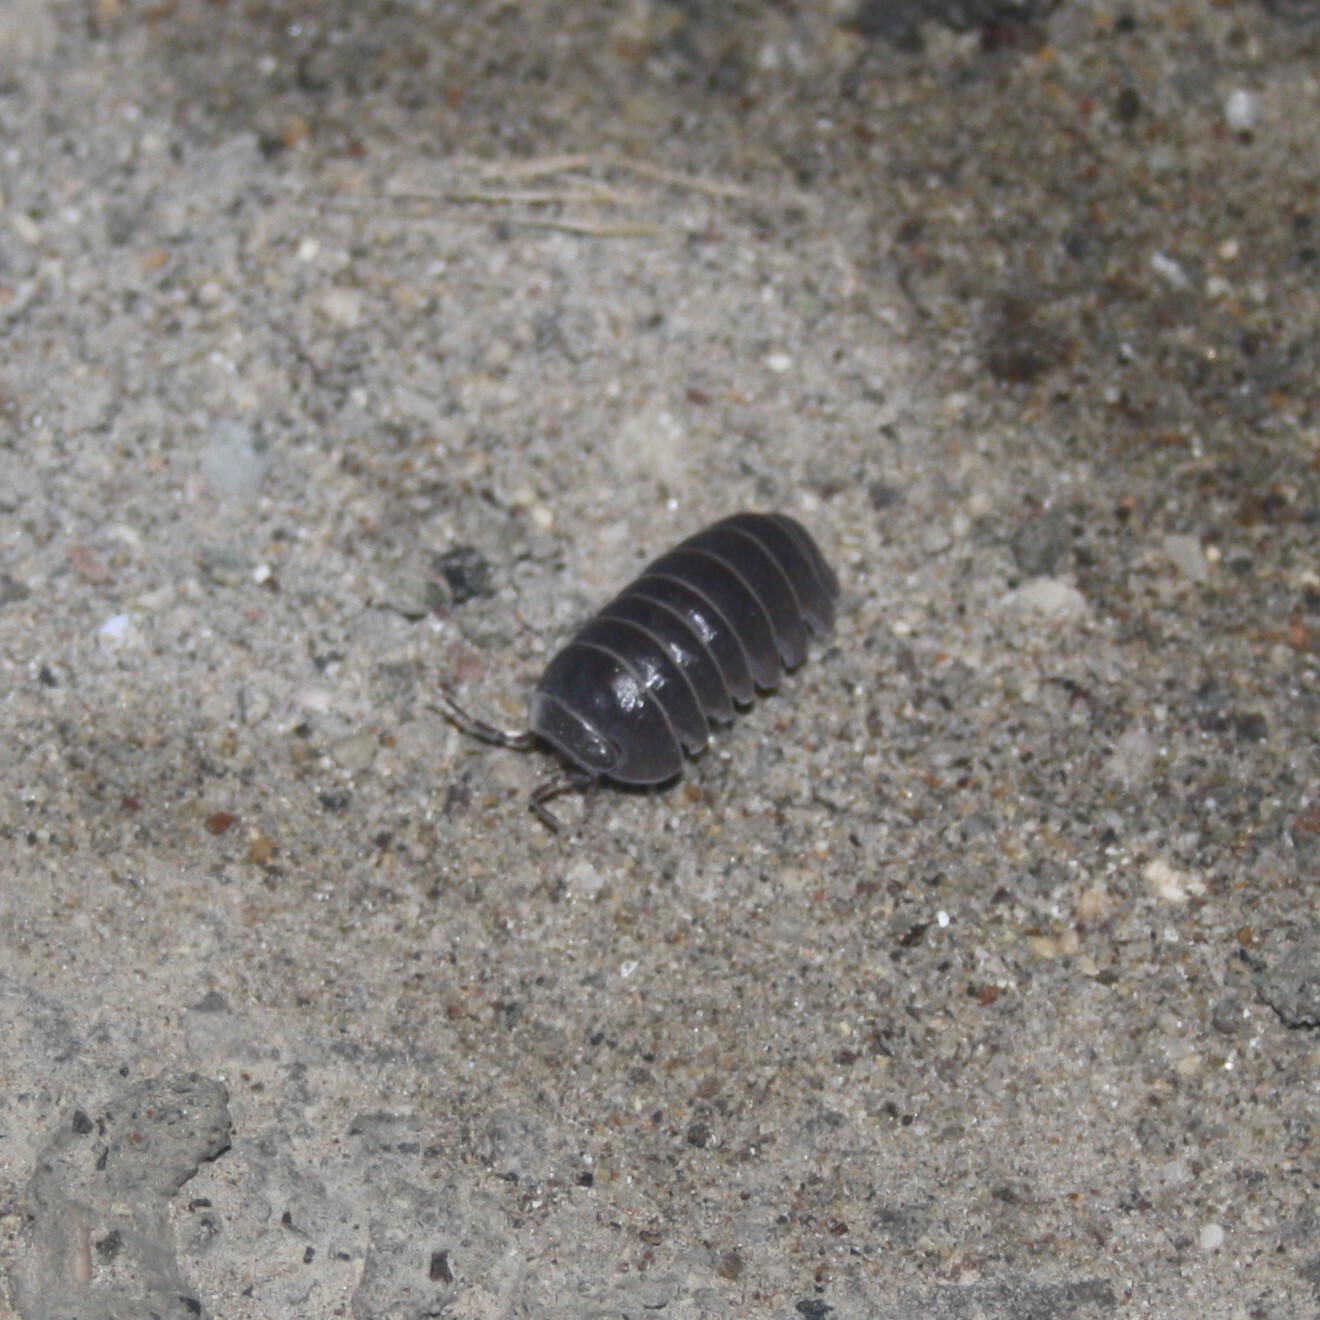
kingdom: Animalia
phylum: Arthropoda
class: Malacostraca
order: Isopoda
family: Armadillidae
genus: Armadillo
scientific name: Armadillo officinalis
